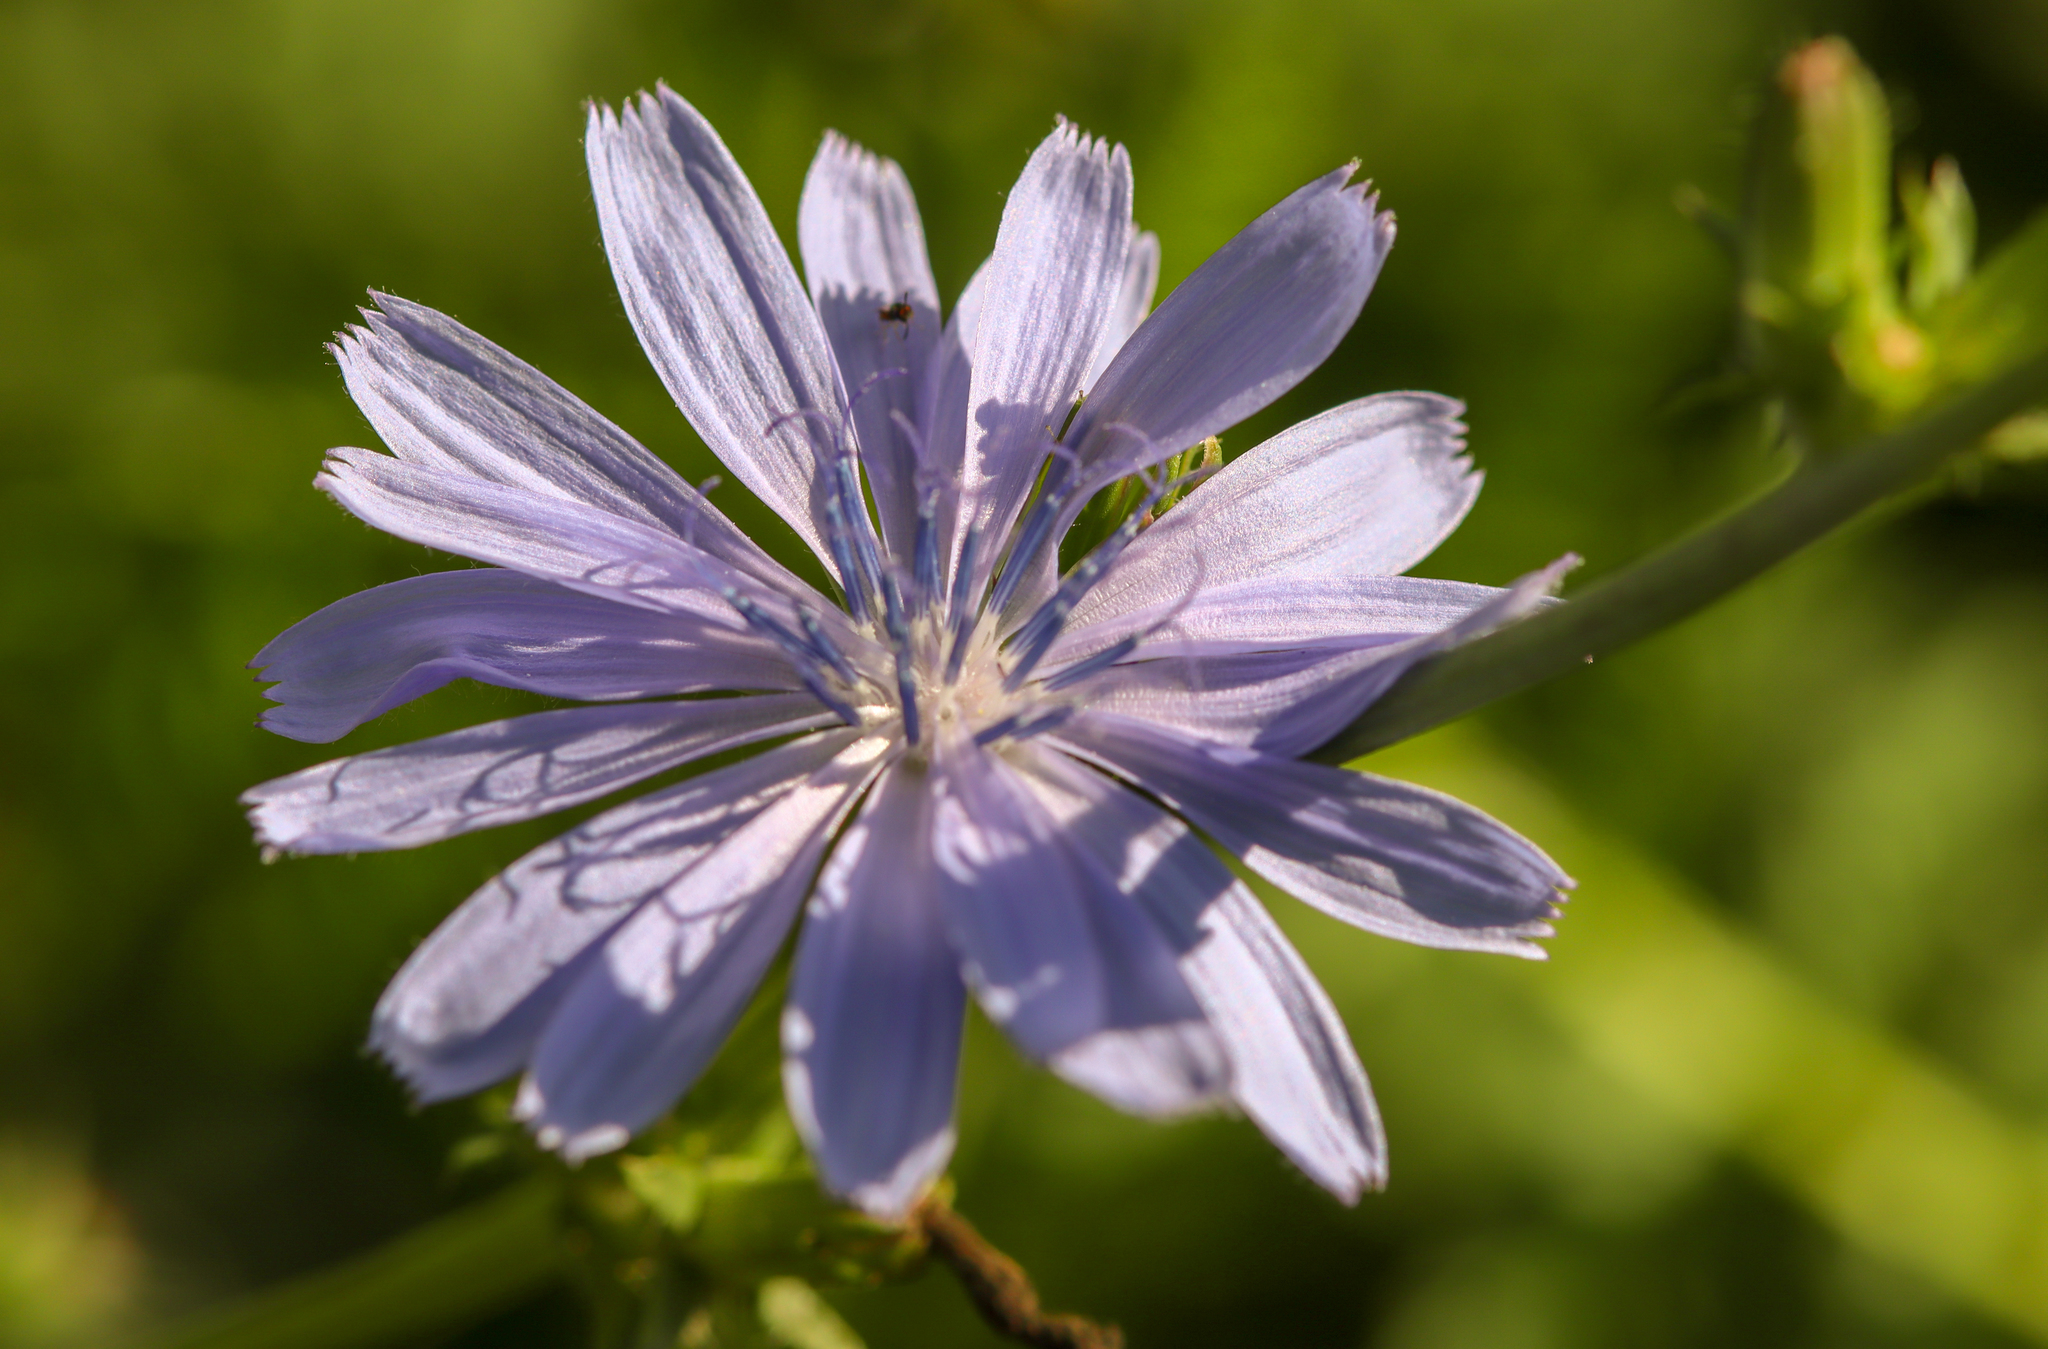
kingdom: Plantae
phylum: Tracheophyta
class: Magnoliopsida
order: Asterales
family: Asteraceae
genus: Cichorium
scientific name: Cichorium intybus
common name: Chicory
